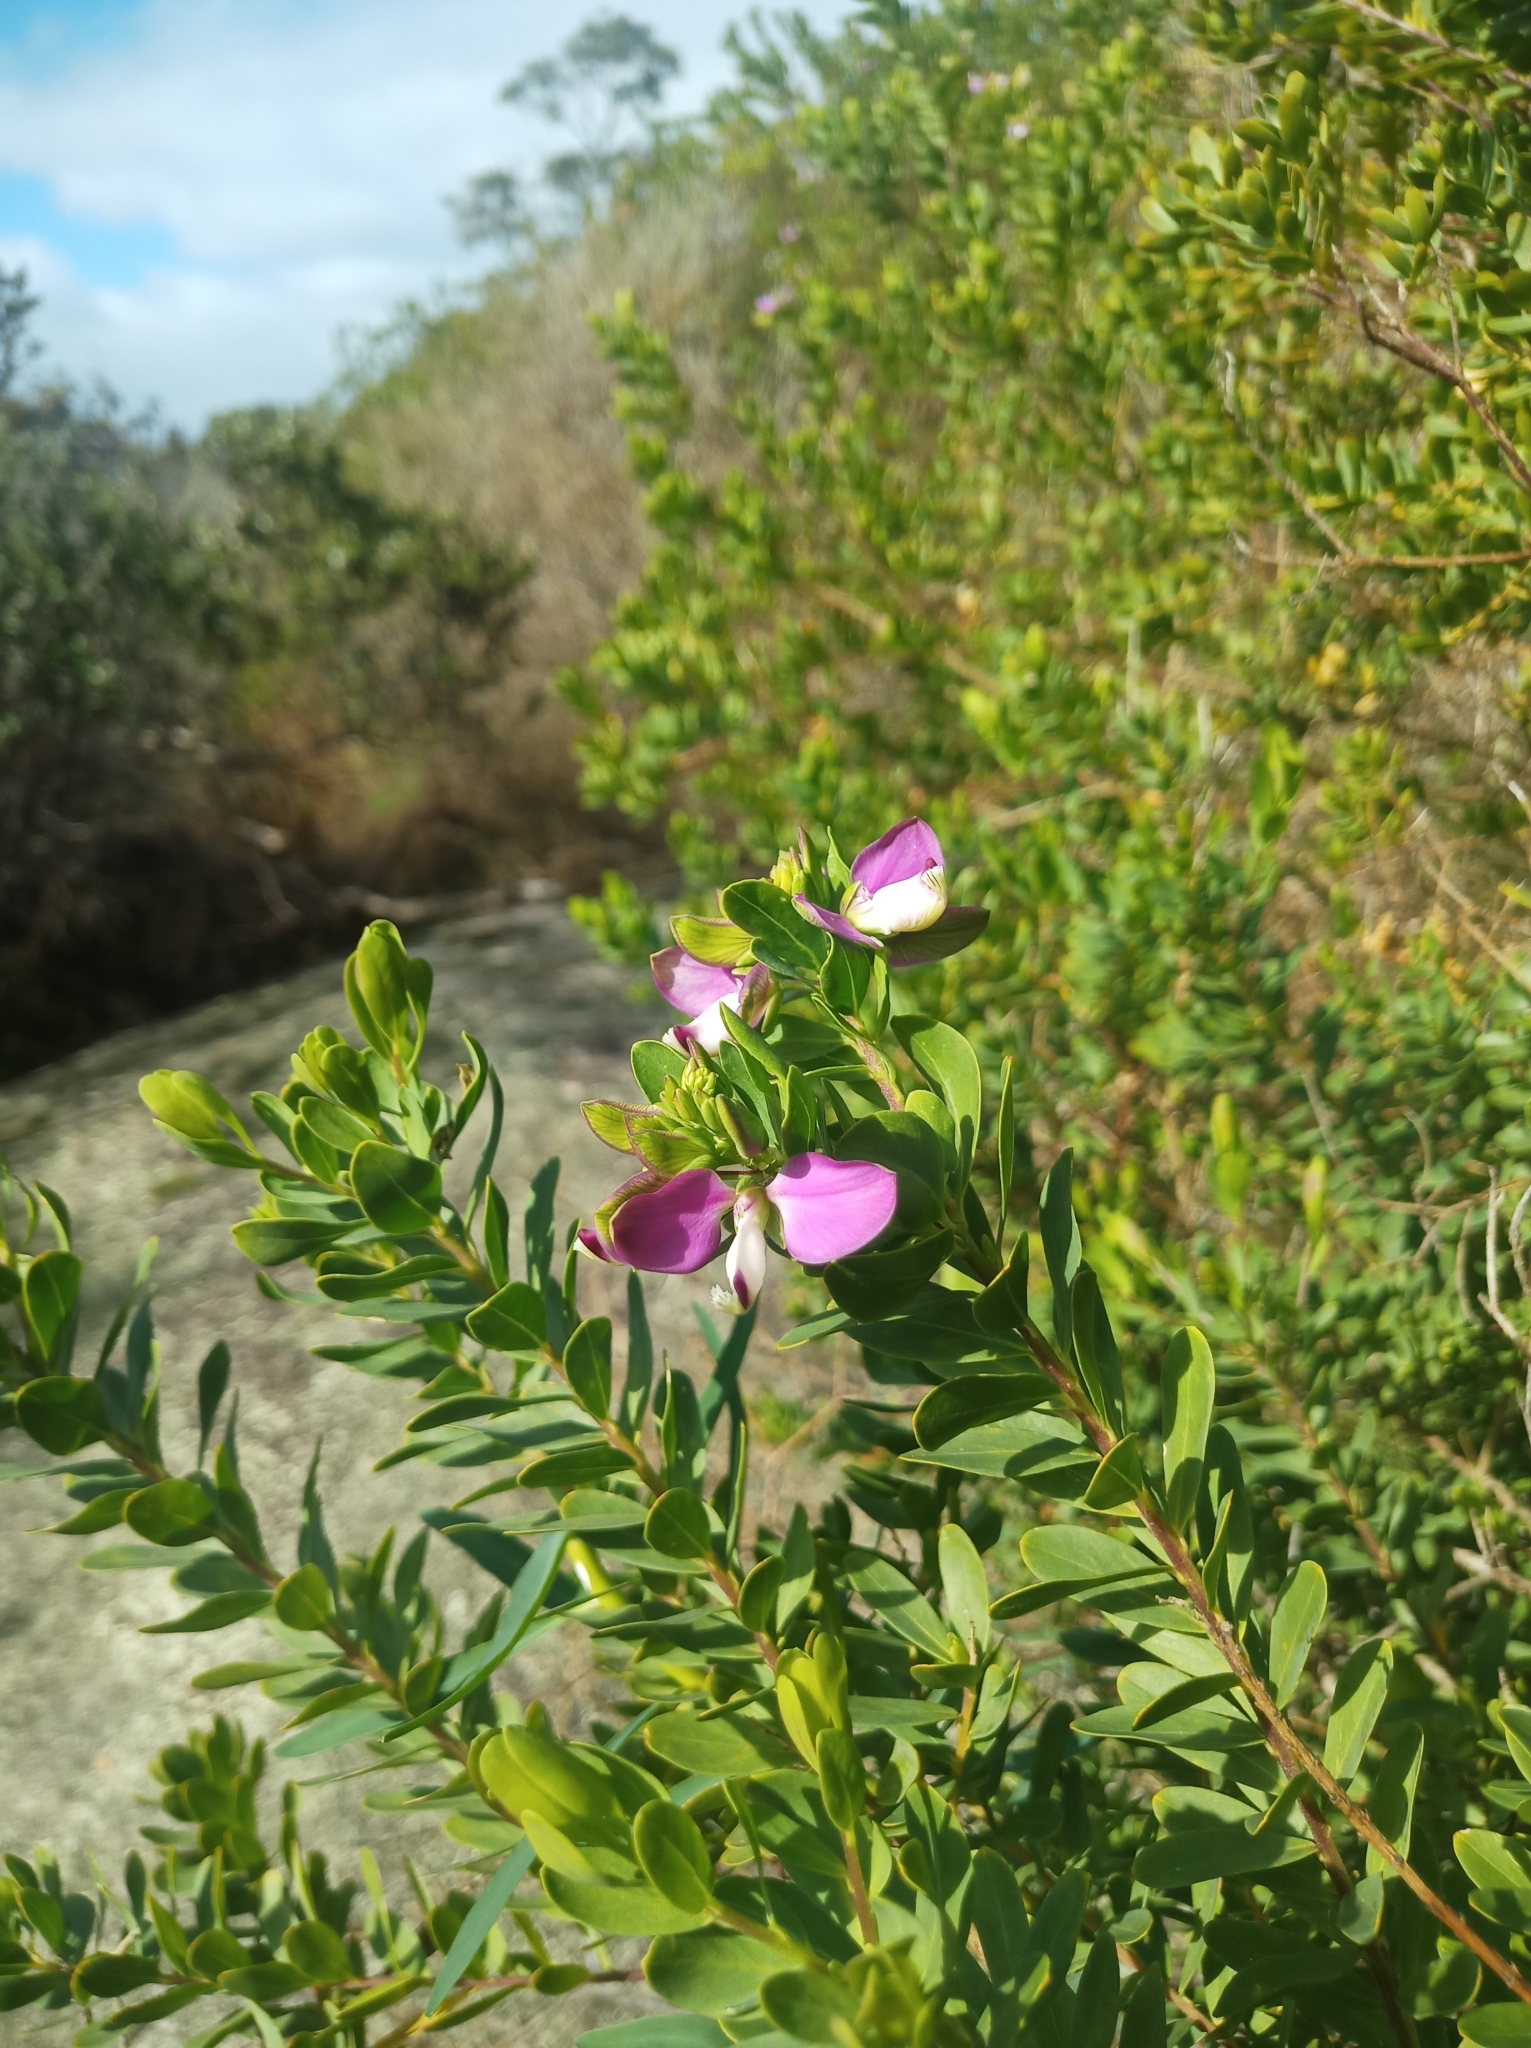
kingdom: Plantae
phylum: Tracheophyta
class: Magnoliopsida
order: Fabales
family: Polygalaceae
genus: Polygala
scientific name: Polygala myrtifolia
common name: Myrtle-leaf milkwort
